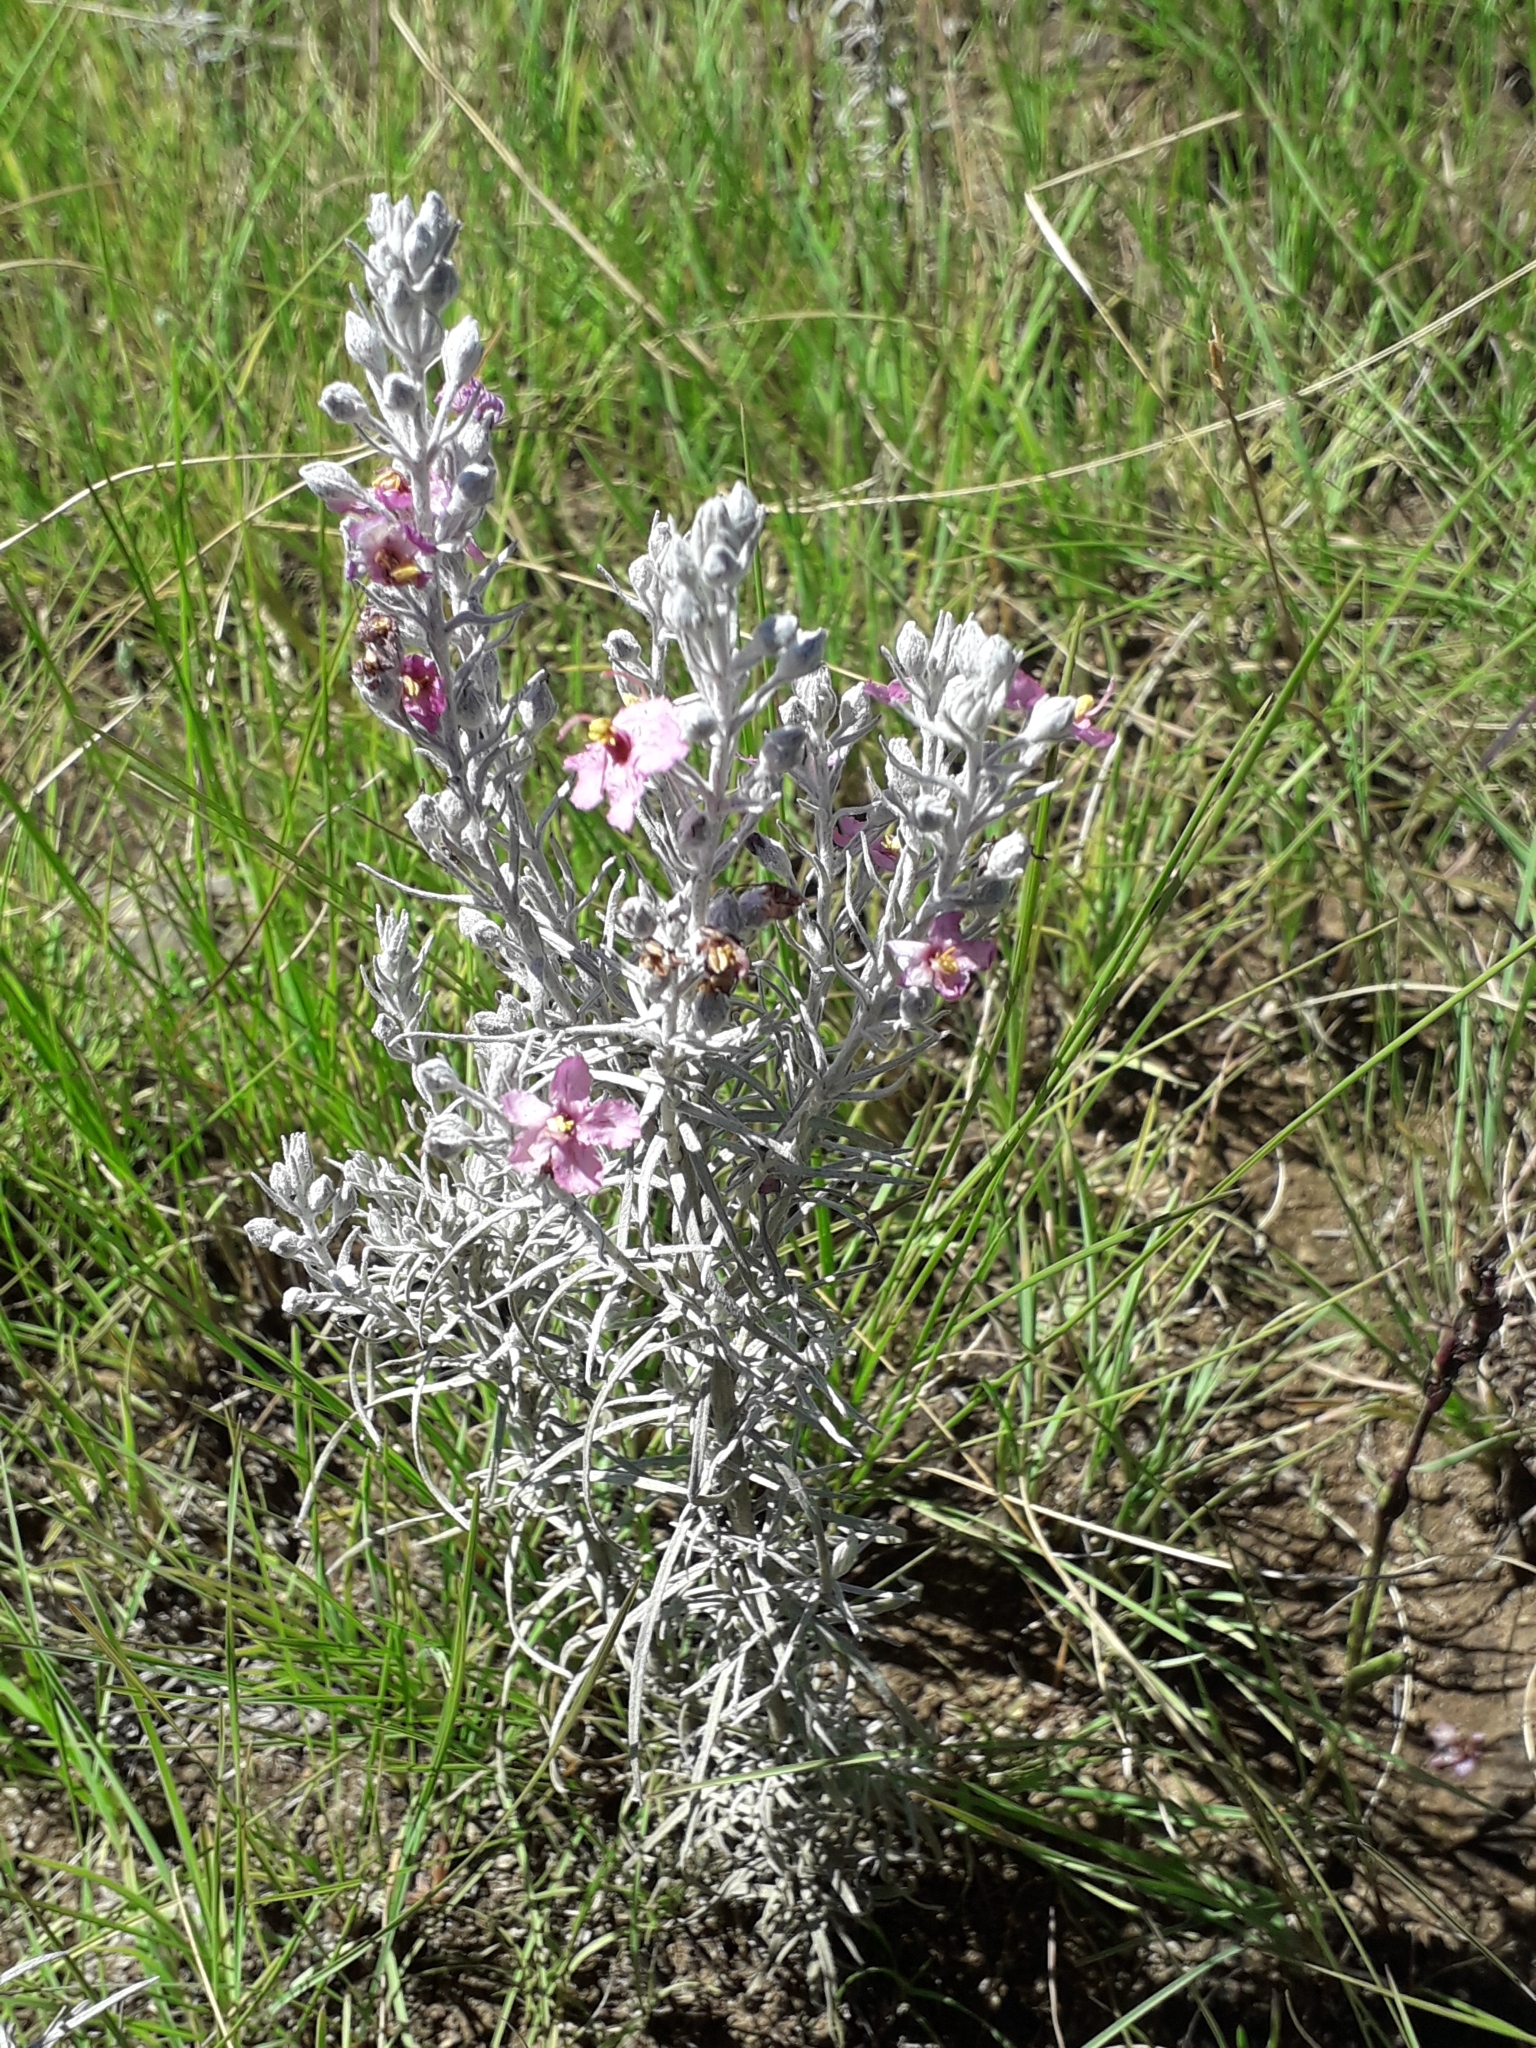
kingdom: Plantae
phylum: Tracheophyta
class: Magnoliopsida
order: Lamiales
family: Orobanchaceae
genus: Sopubia
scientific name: Sopubia cana
